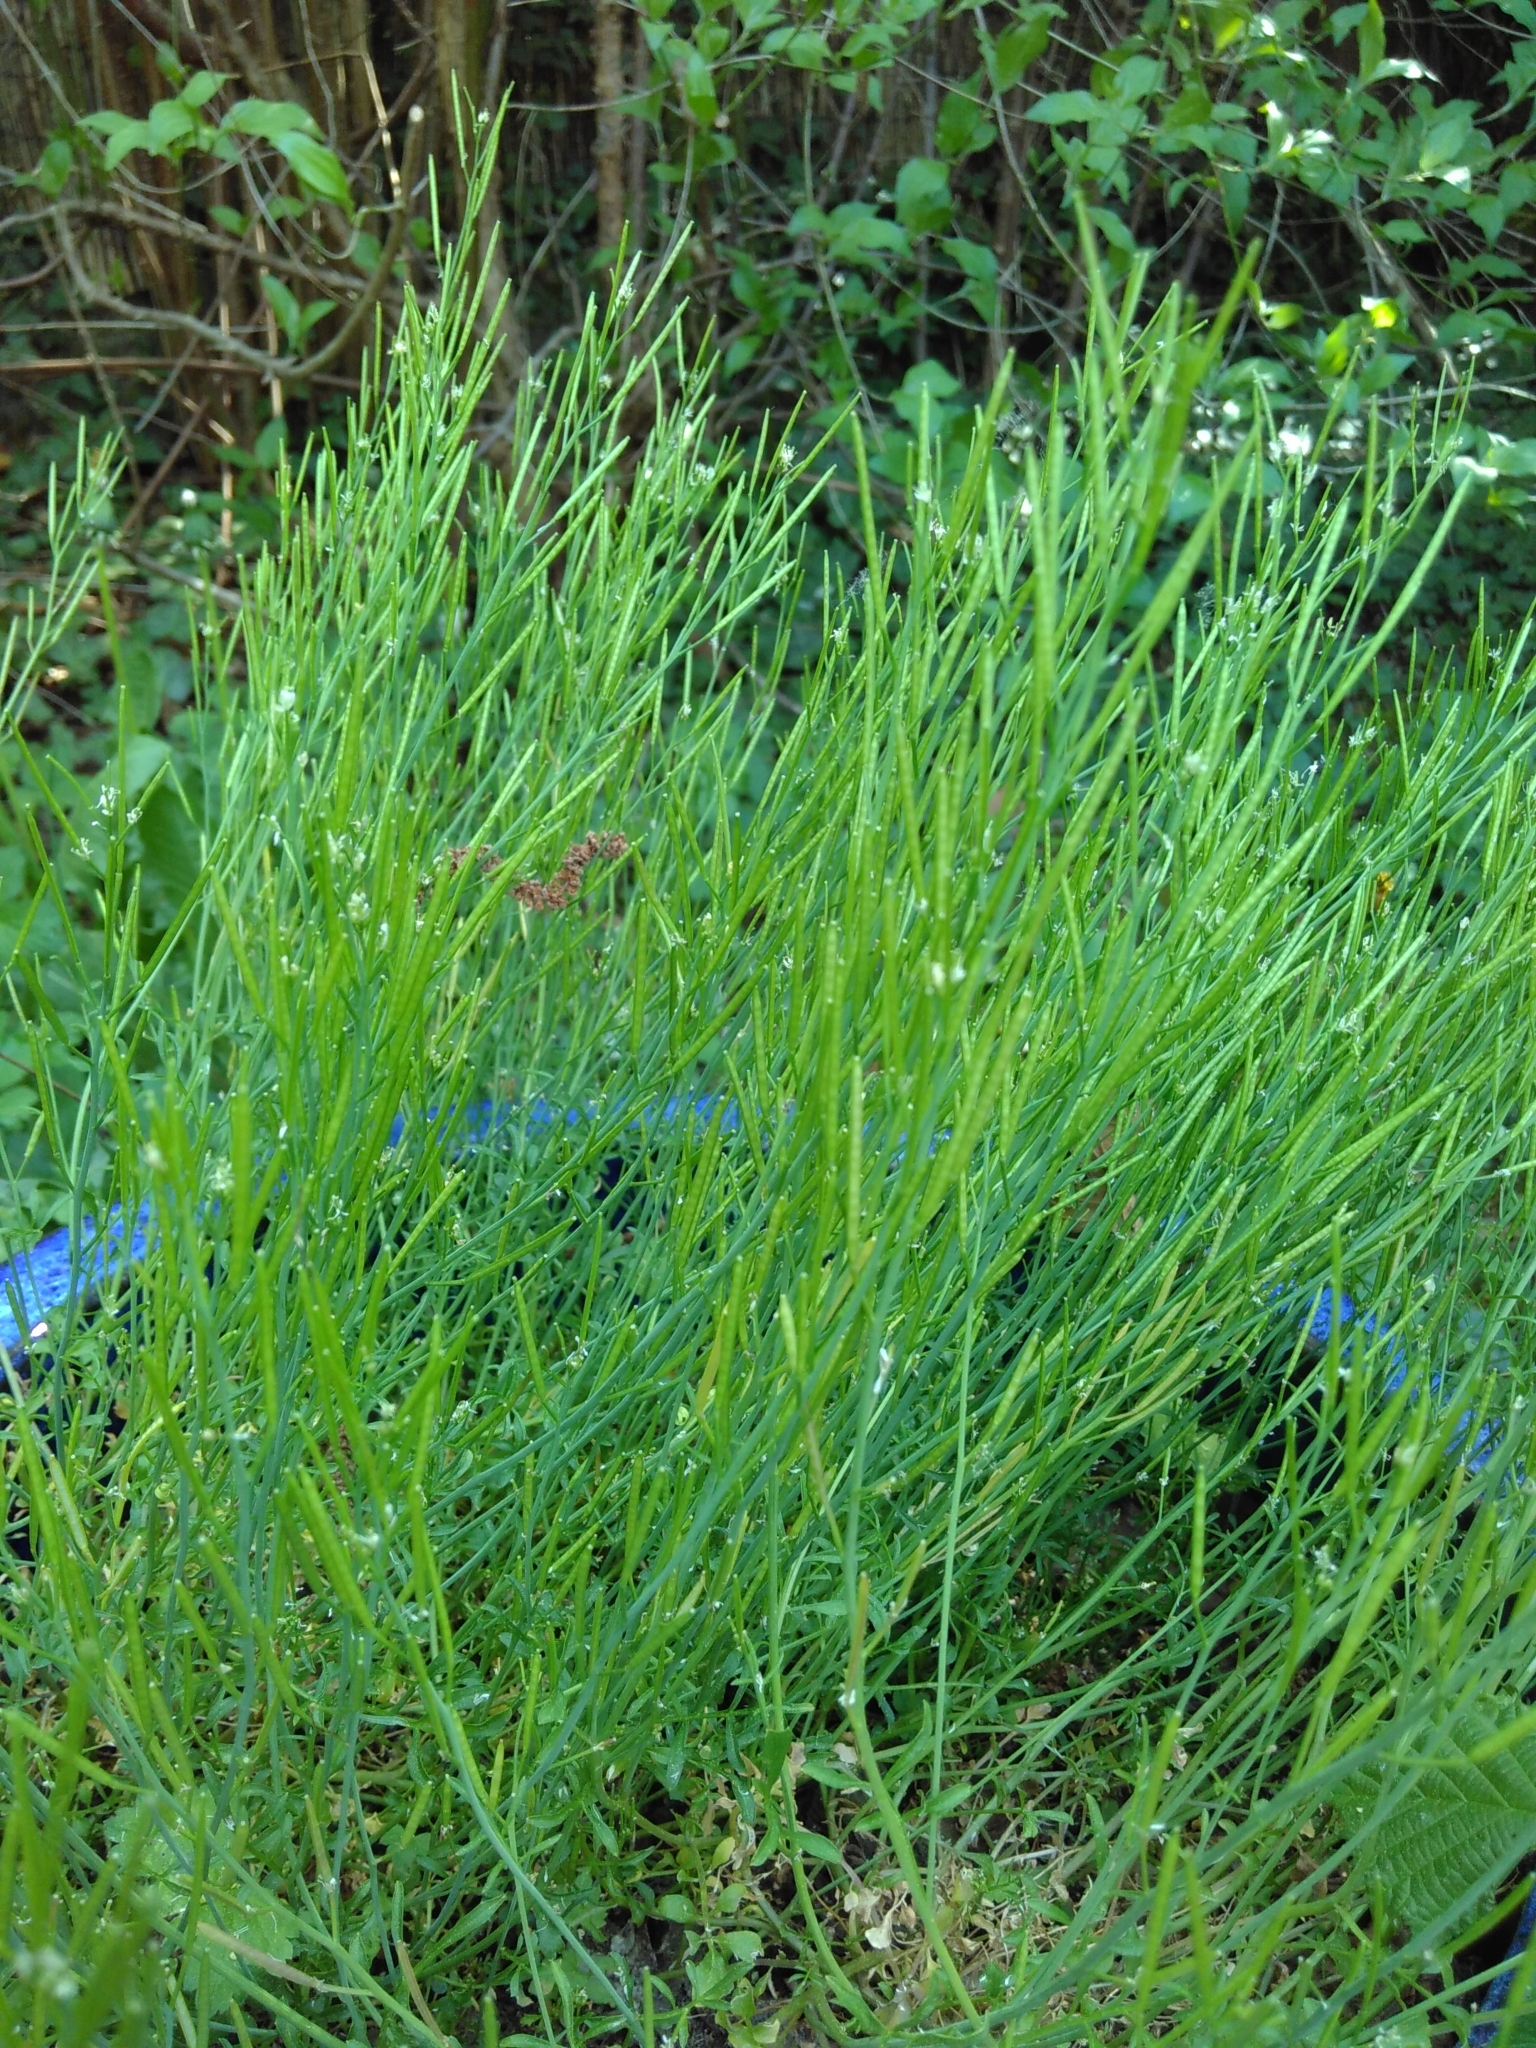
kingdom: Plantae
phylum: Tracheophyta
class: Magnoliopsida
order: Brassicales
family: Brassicaceae
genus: Cardamine
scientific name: Cardamine hirsuta
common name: Hairy bittercress
